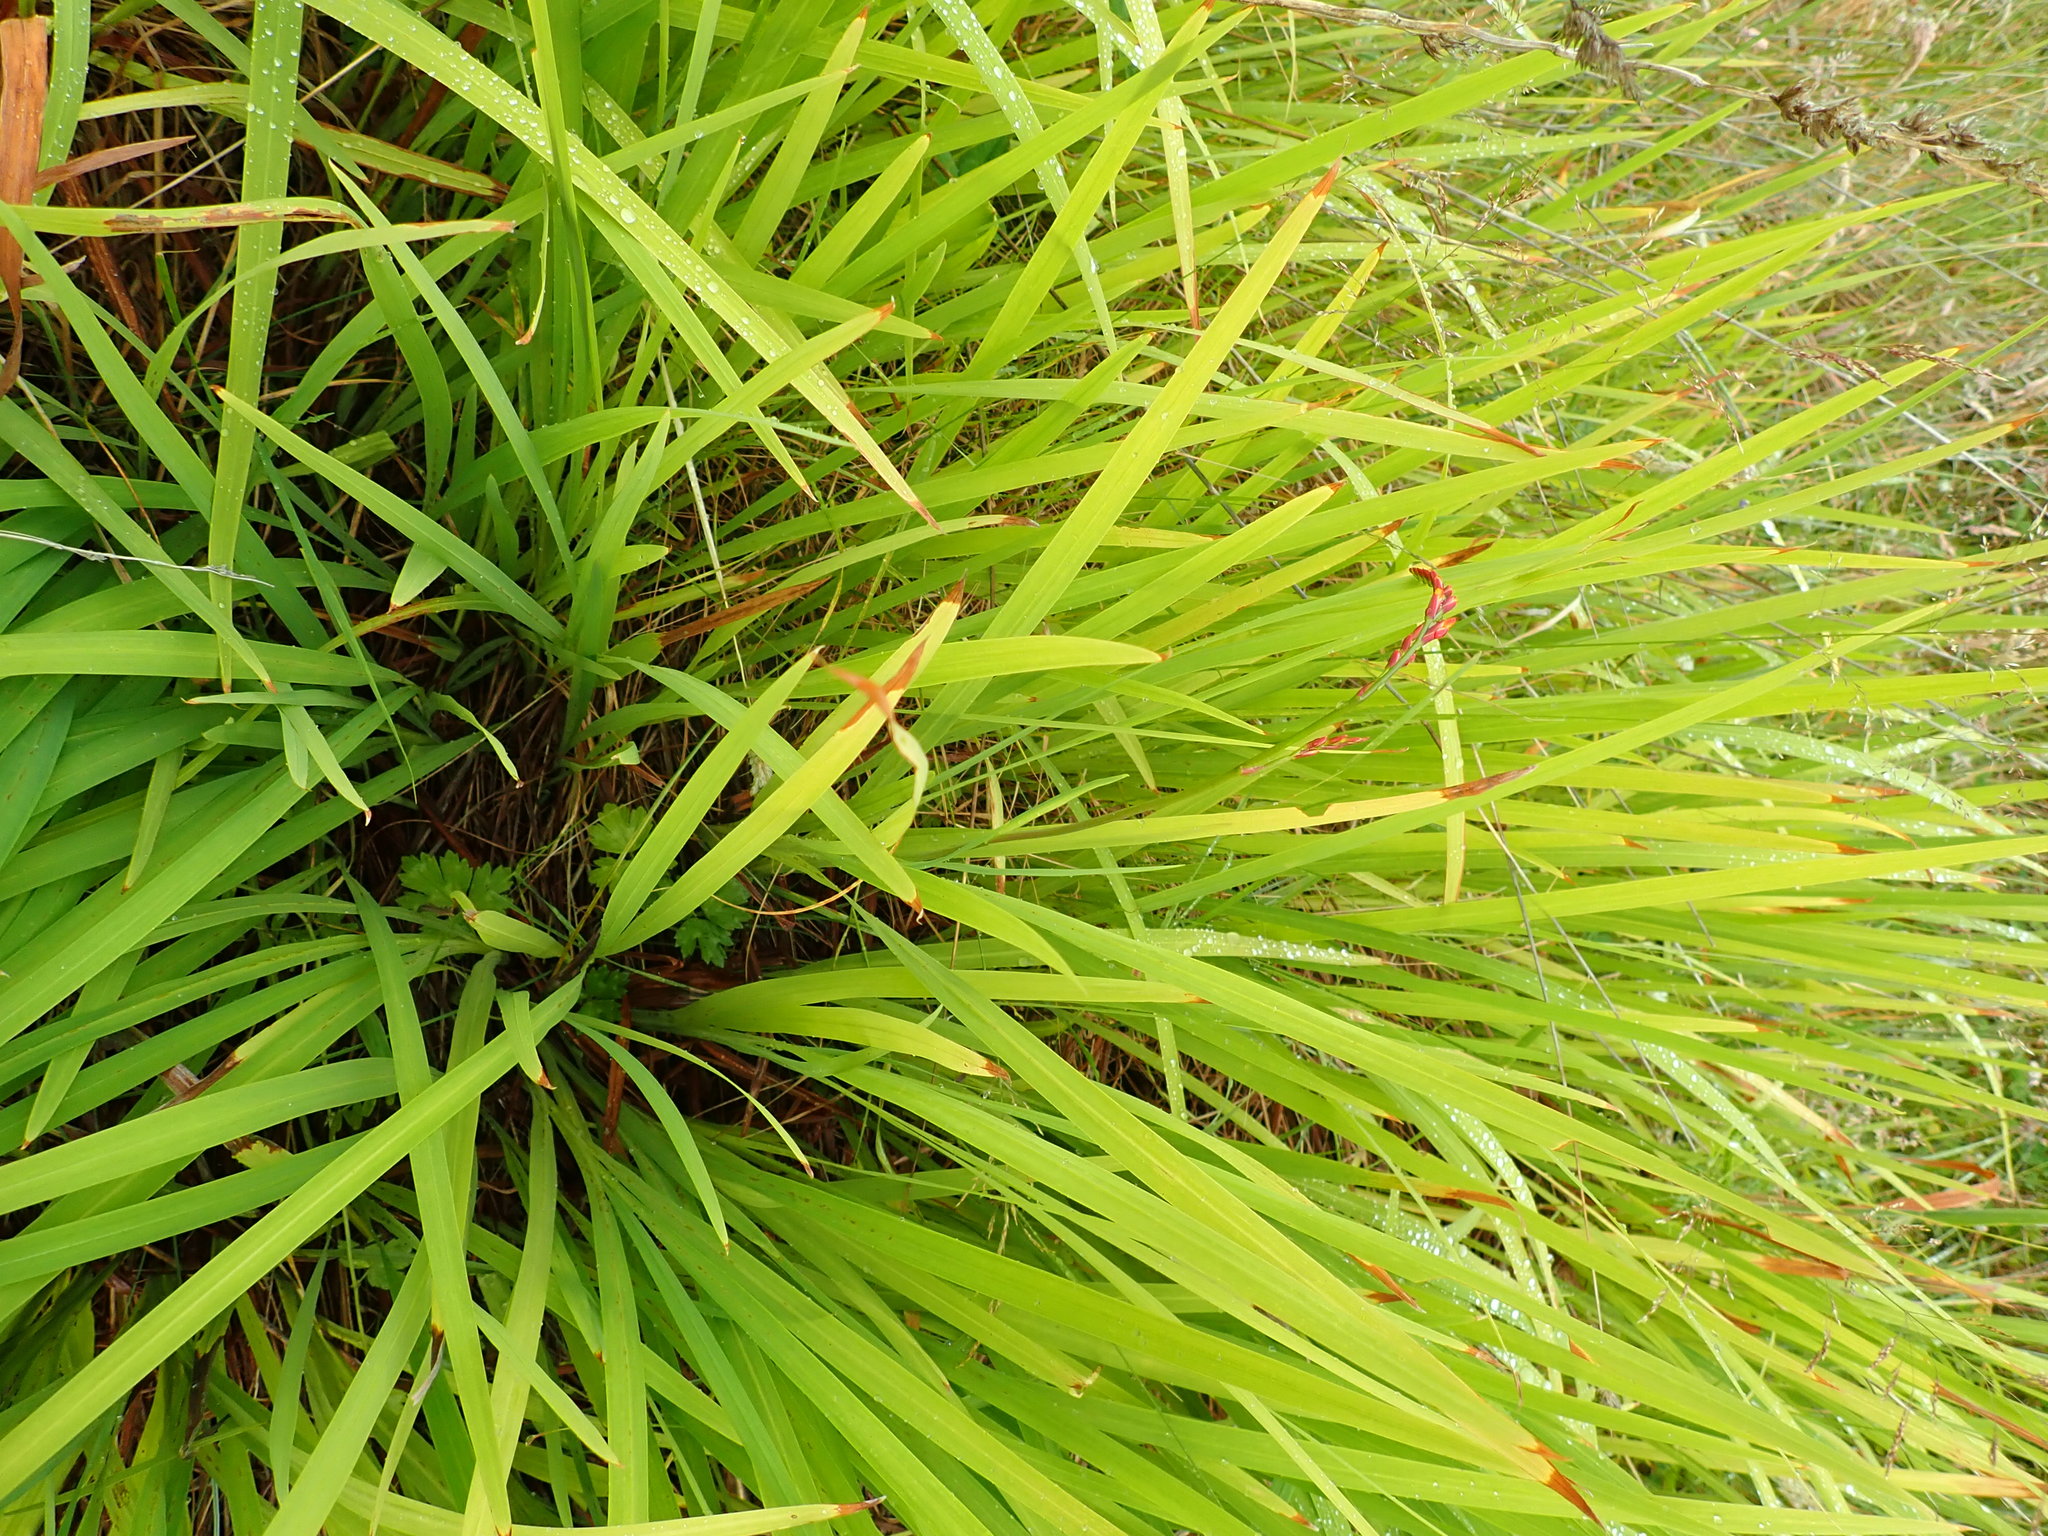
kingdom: Plantae
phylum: Tracheophyta
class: Liliopsida
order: Asparagales
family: Iridaceae
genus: Crocosmia
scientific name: Crocosmia crocosmiiflora
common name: Montbretia
